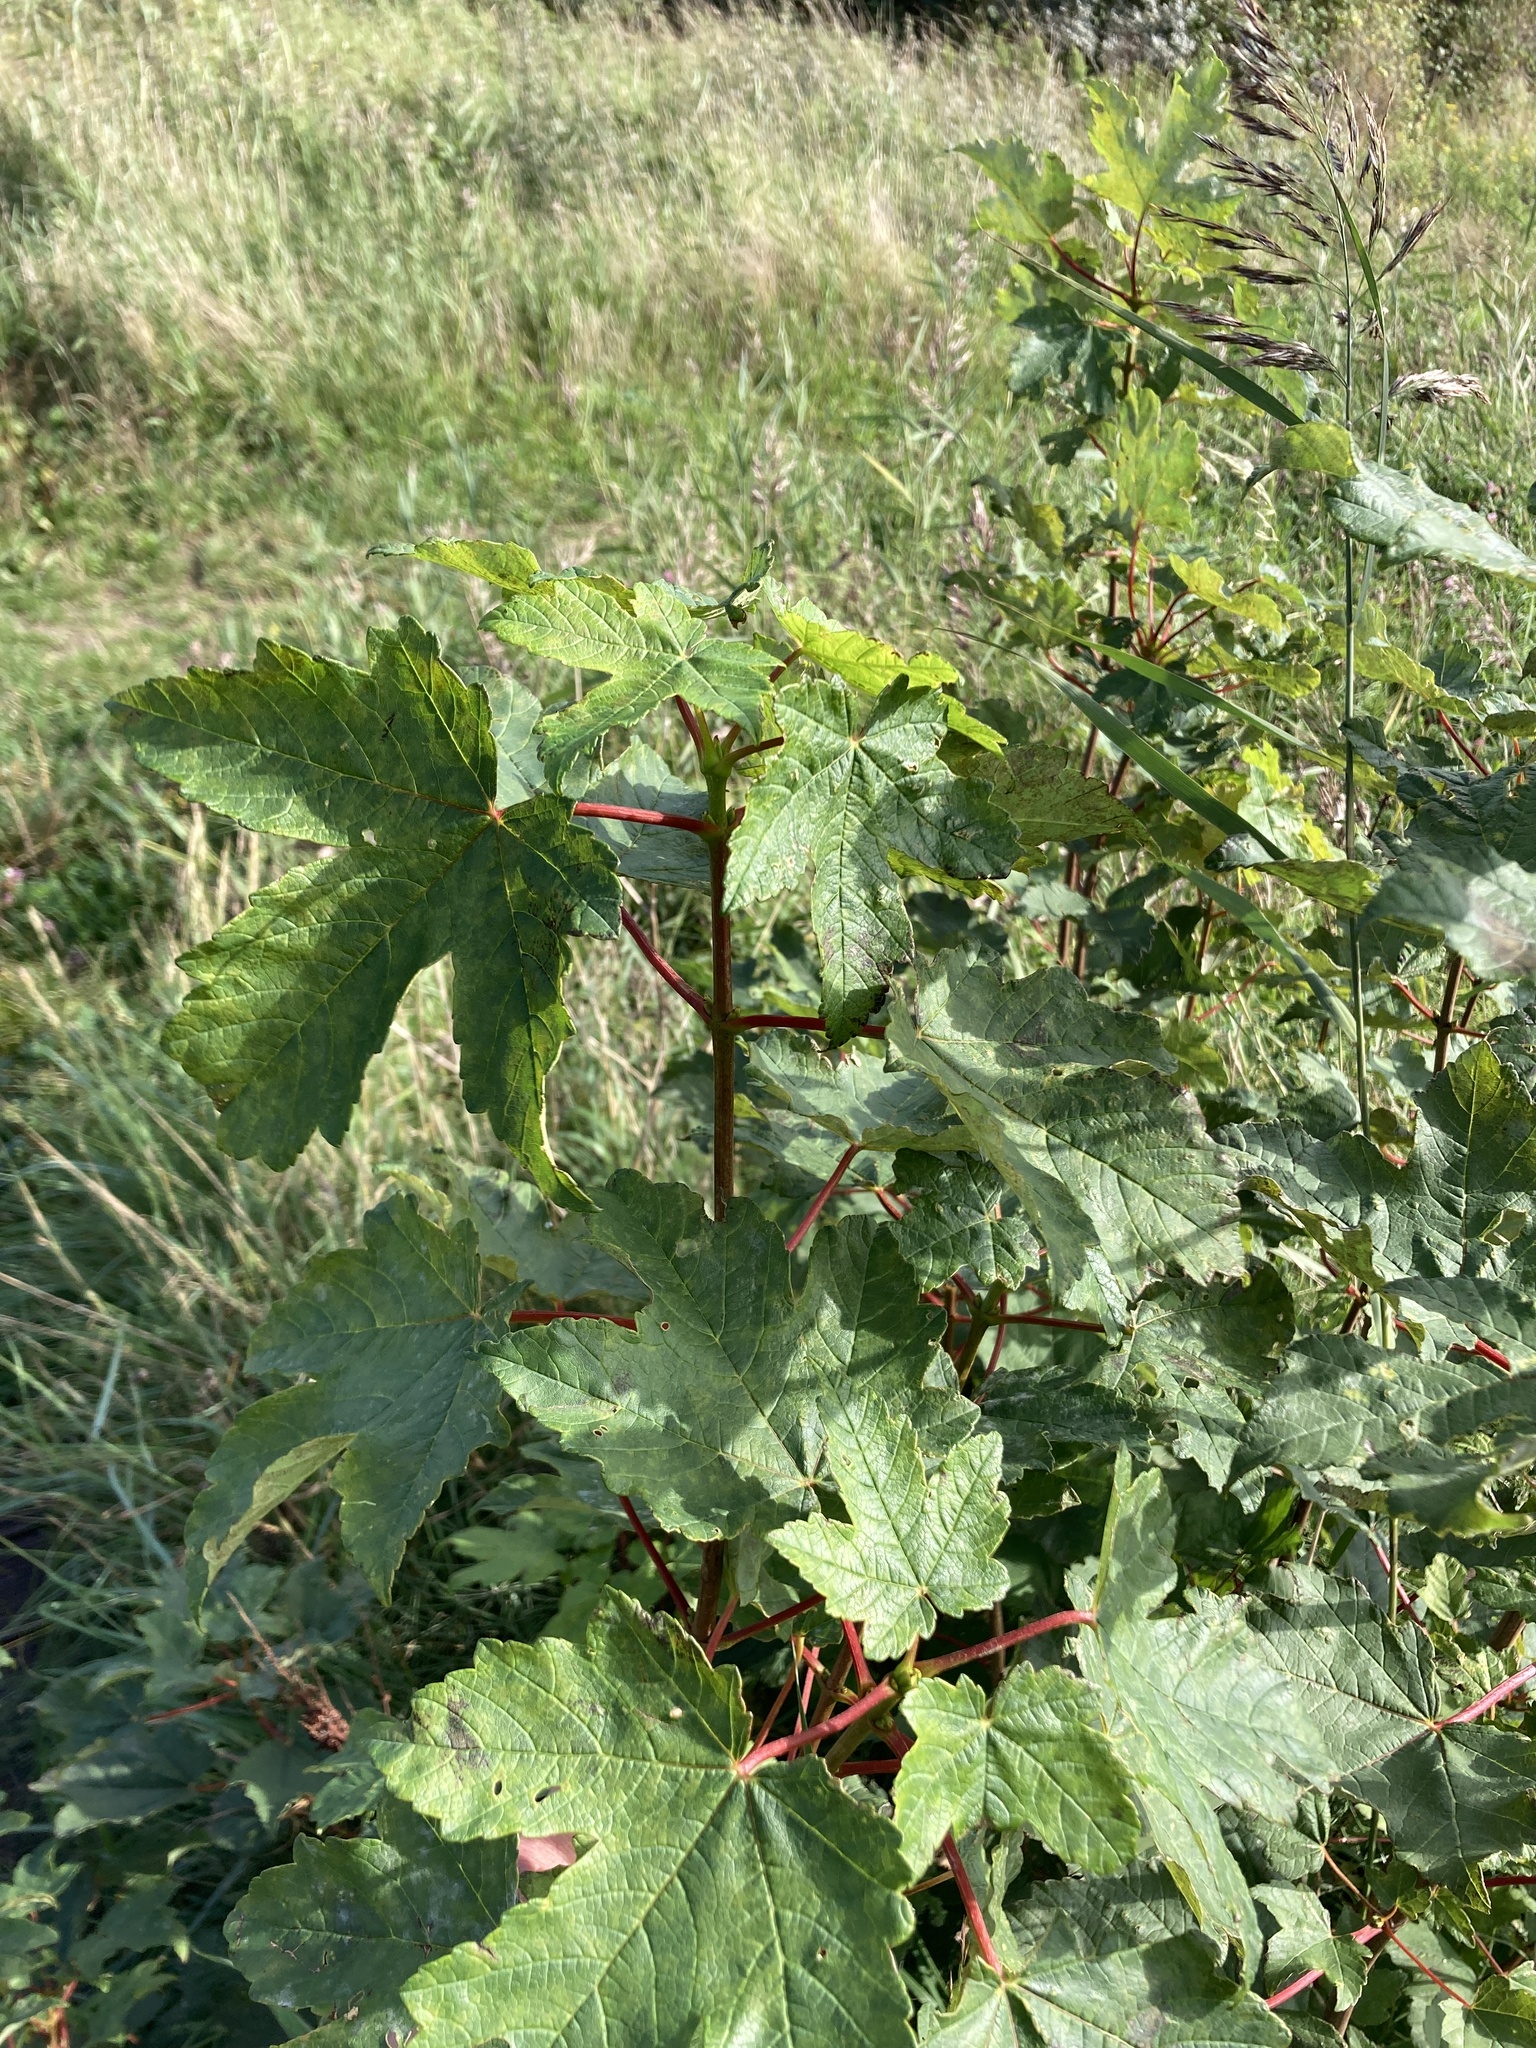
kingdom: Plantae
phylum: Tracheophyta
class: Magnoliopsida
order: Sapindales
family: Sapindaceae
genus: Acer
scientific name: Acer pseudoplatanus
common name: Sycamore
